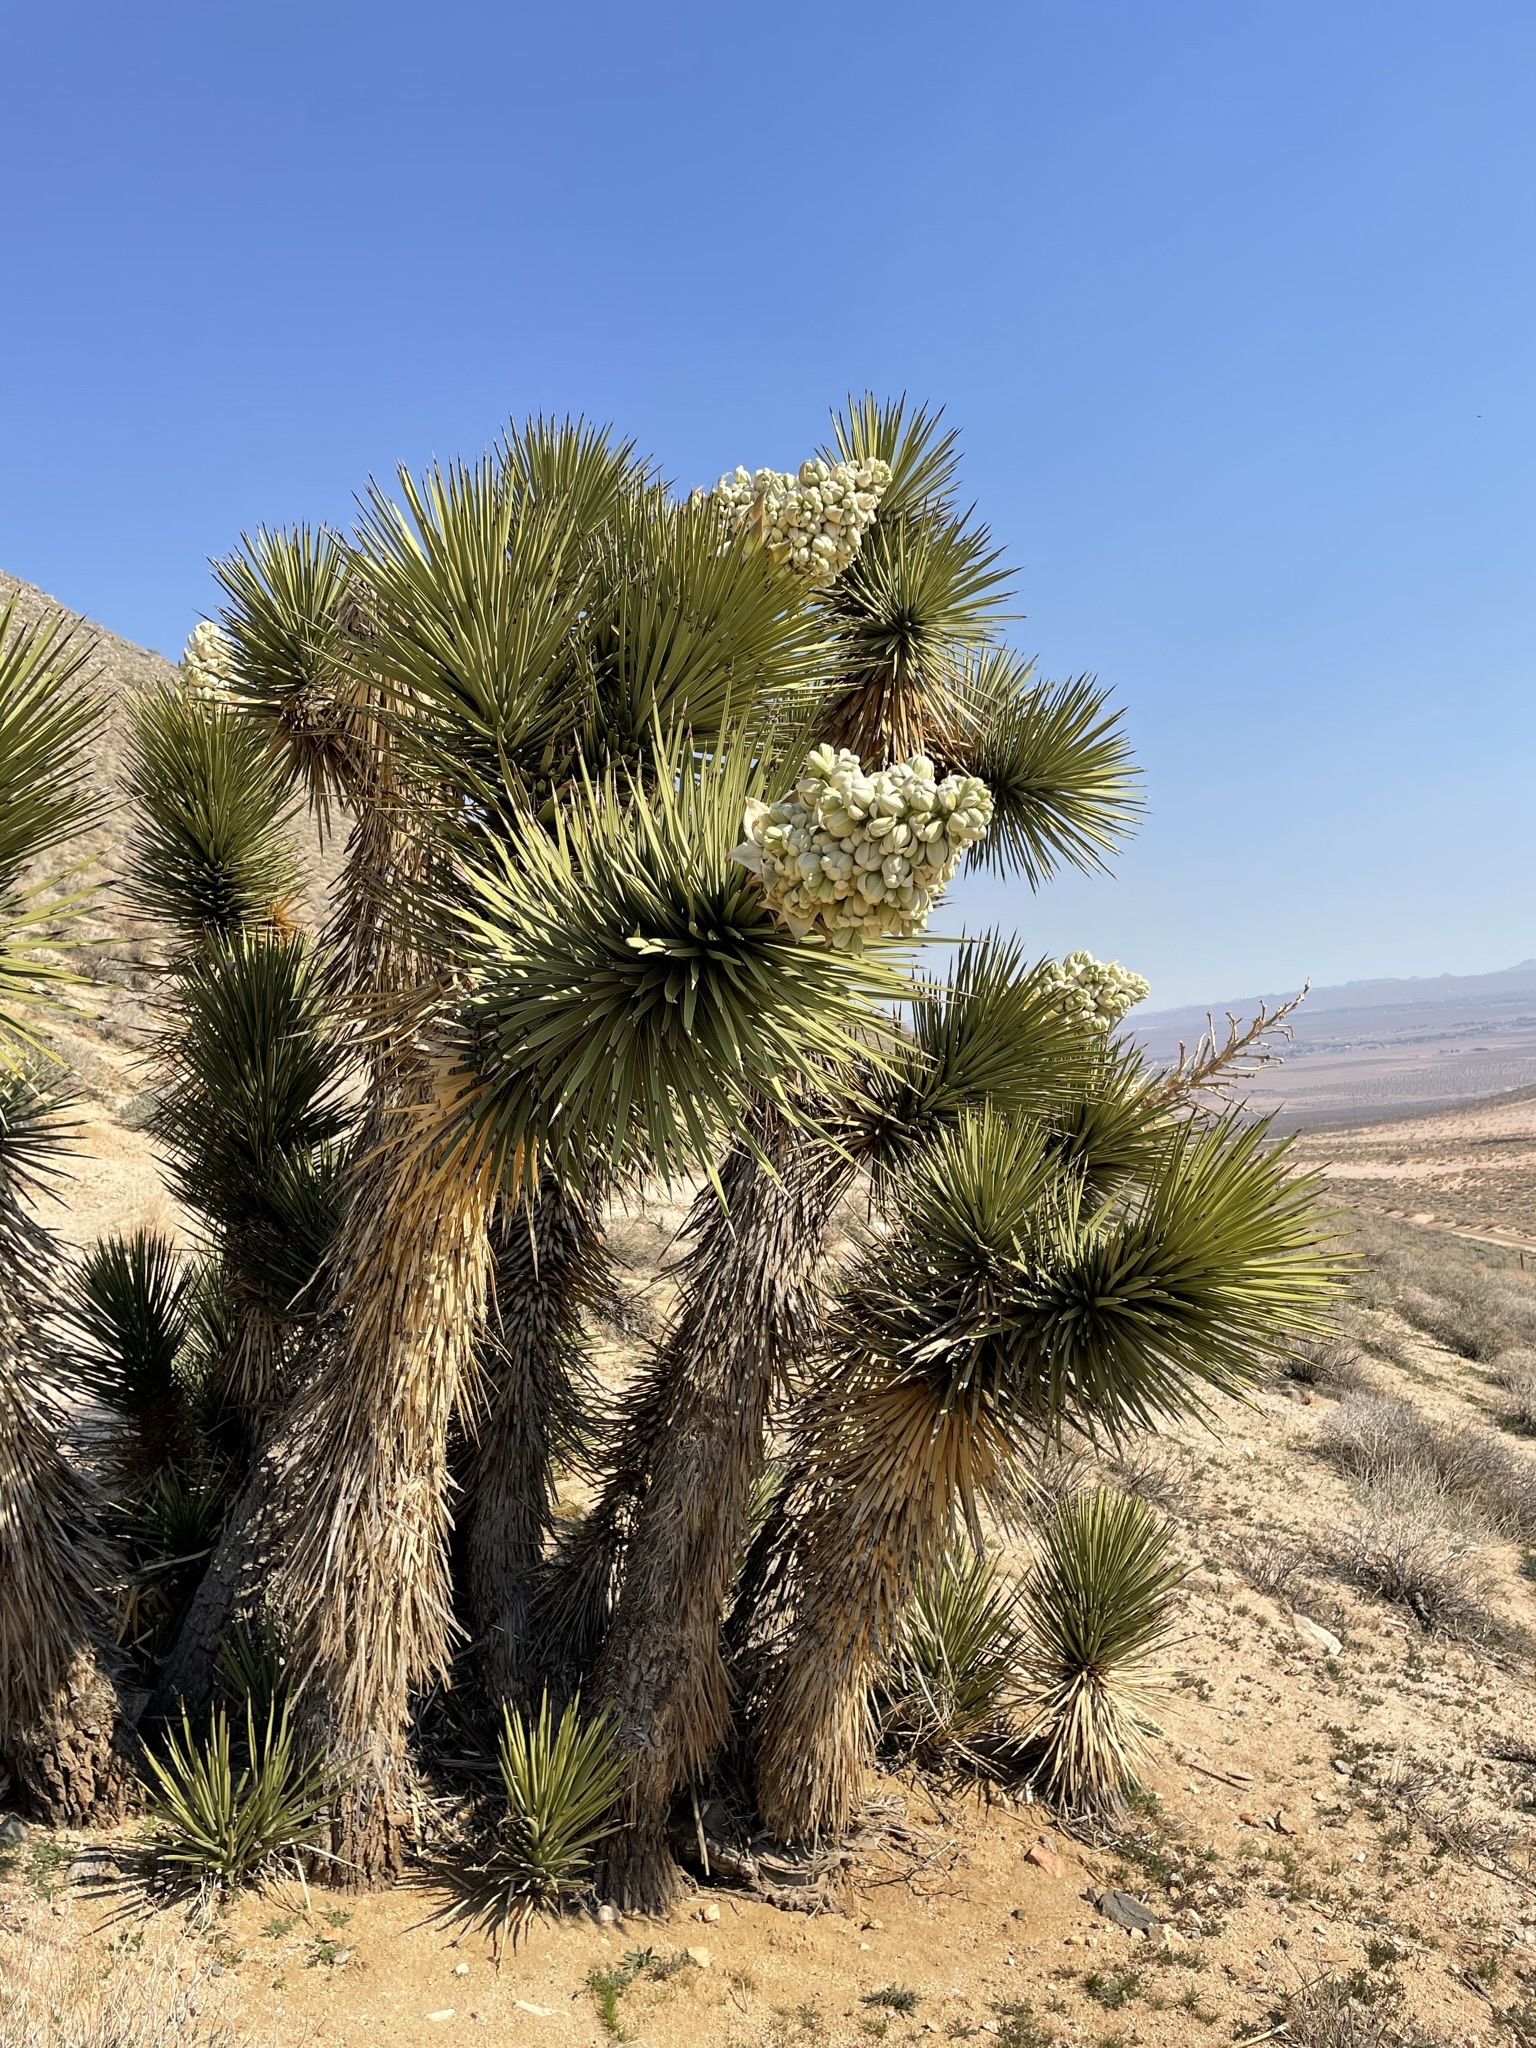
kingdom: Plantae
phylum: Tracheophyta
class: Liliopsida
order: Asparagales
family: Asparagaceae
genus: Yucca
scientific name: Yucca brevifolia
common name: Joshua tree
